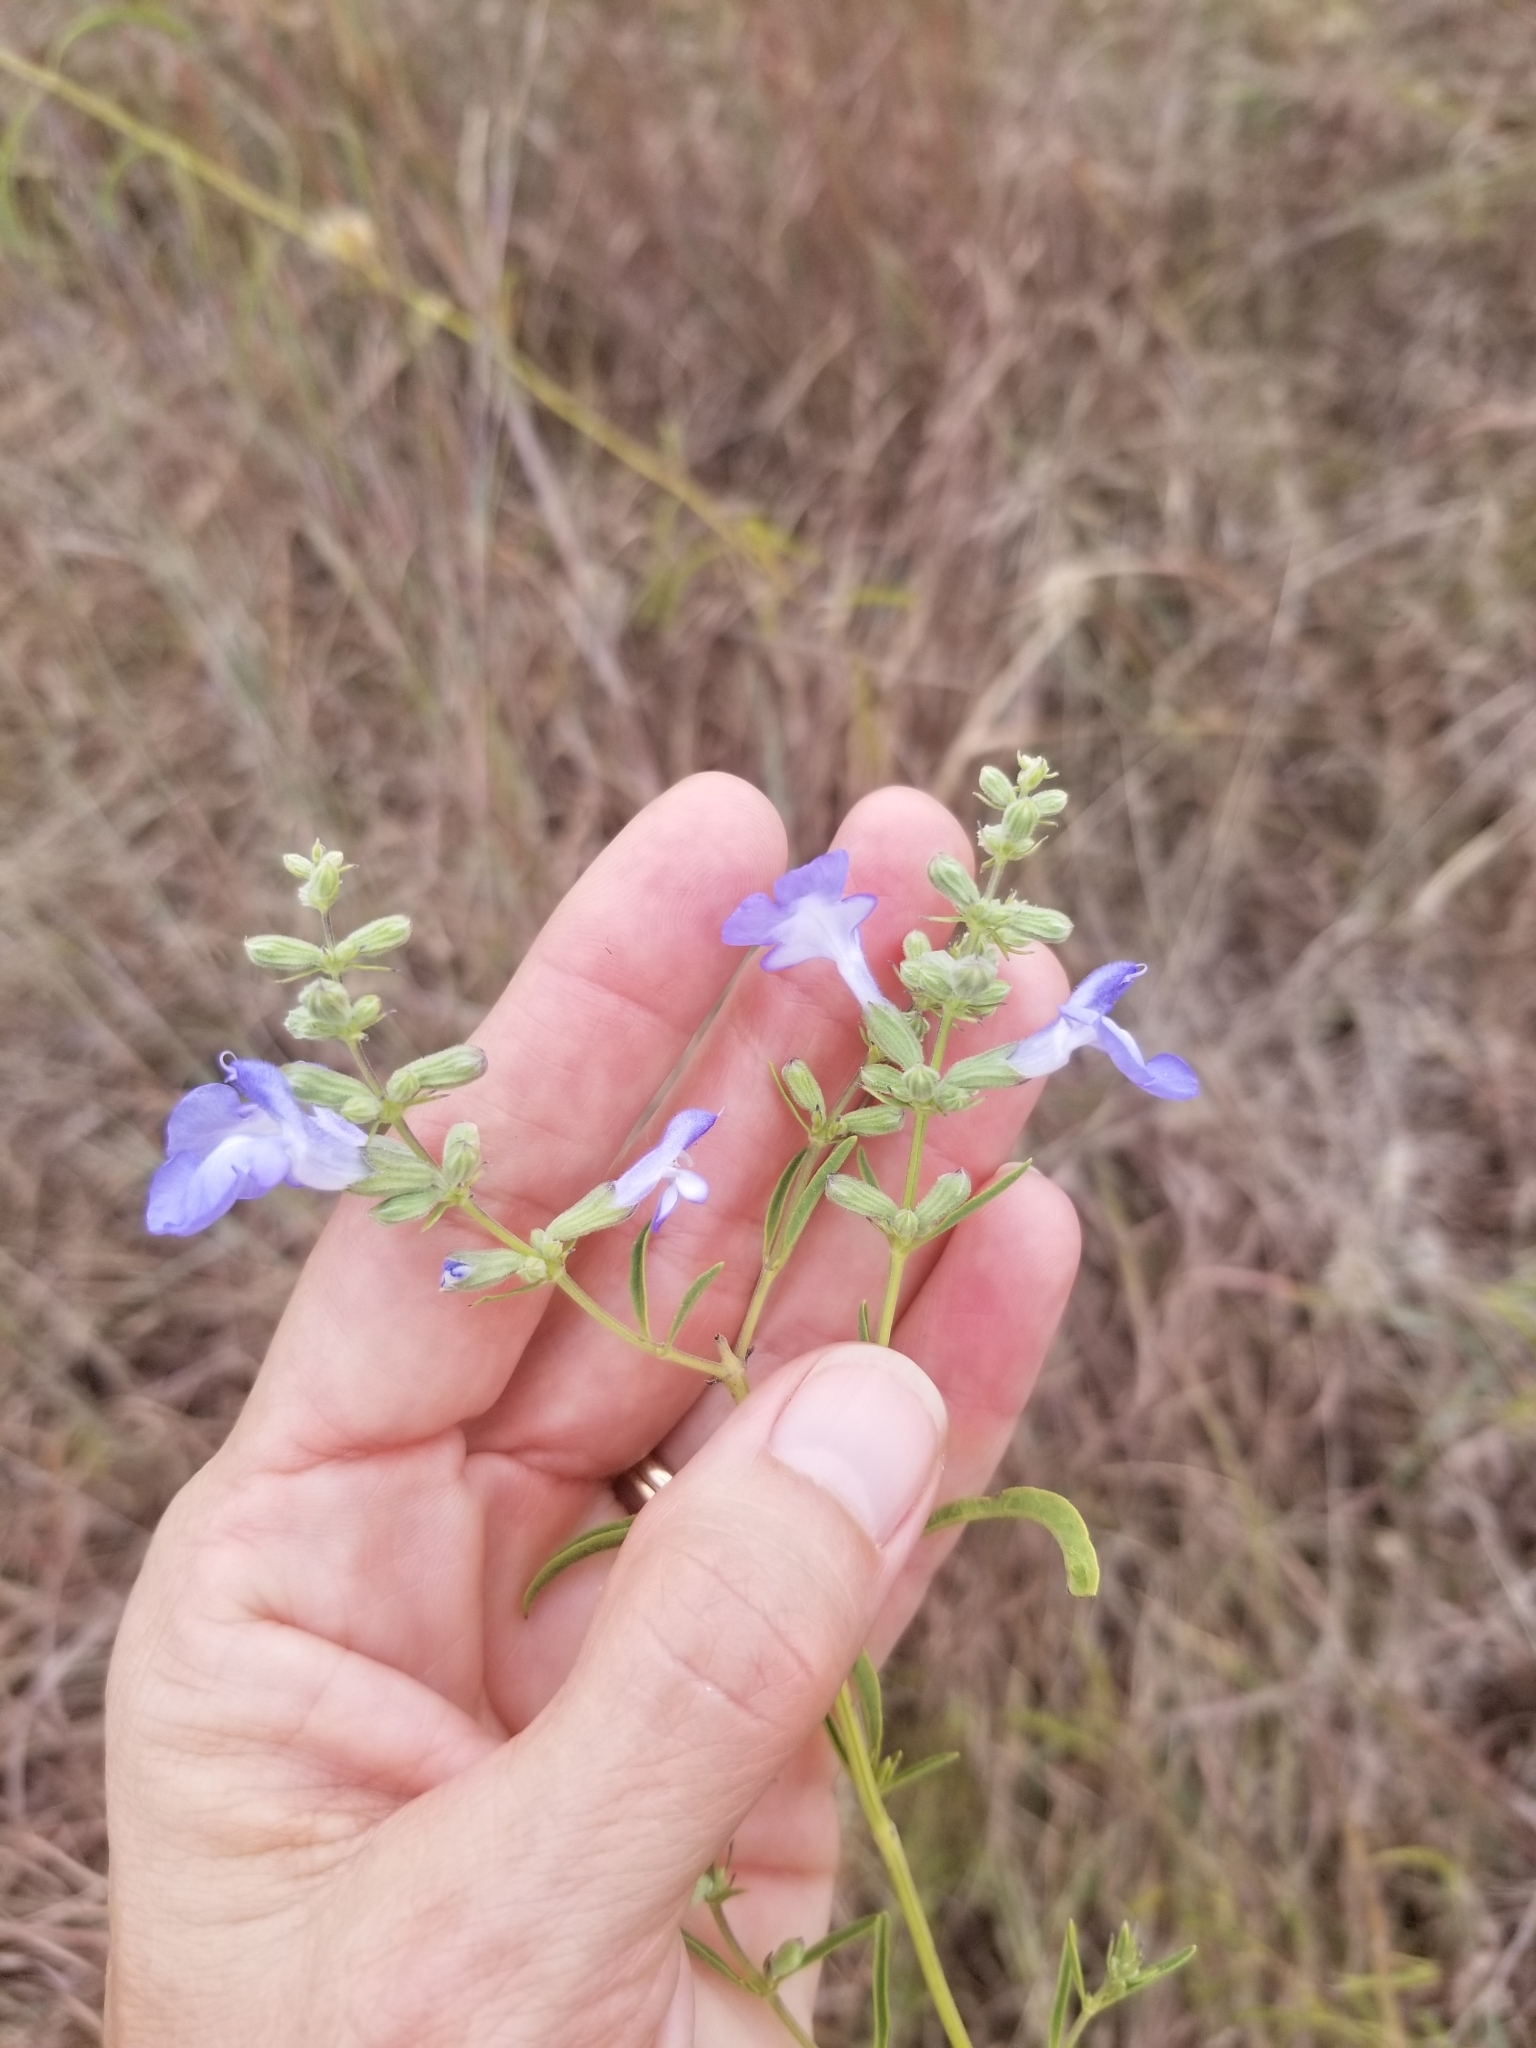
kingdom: Plantae
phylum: Tracheophyta
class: Magnoliopsida
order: Lamiales
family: Lamiaceae
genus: Salvia
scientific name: Salvia azurea
